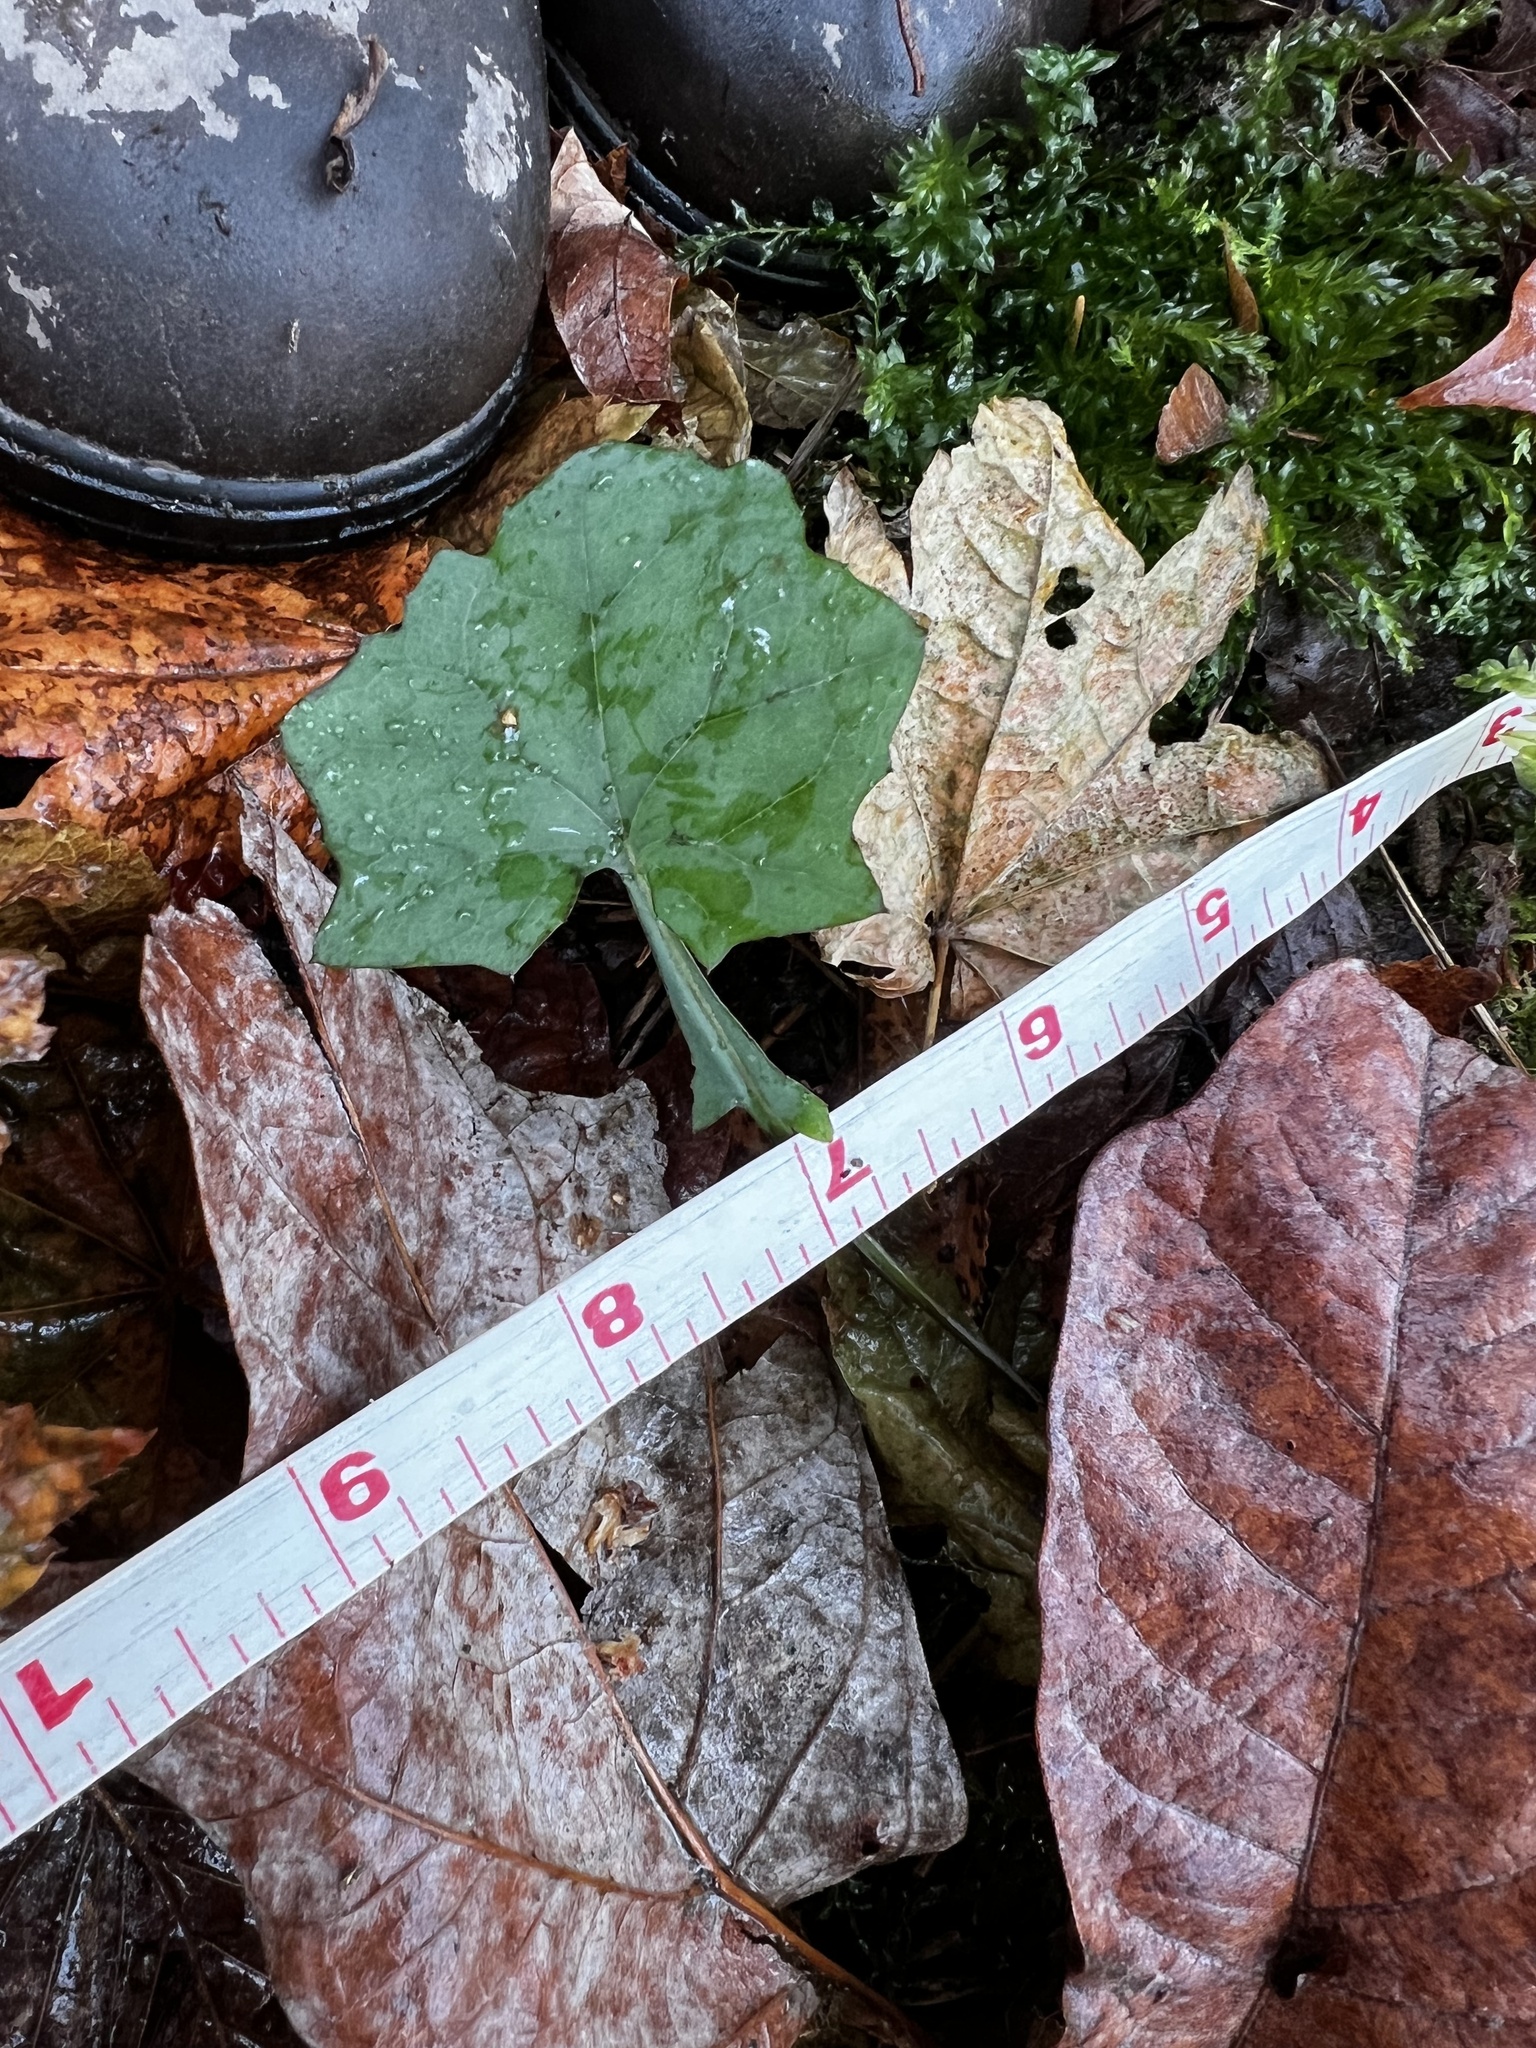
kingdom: Plantae
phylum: Tracheophyta
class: Magnoliopsida
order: Asterales
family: Asteraceae
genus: Mycelis
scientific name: Mycelis muralis
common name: Wall lettuce
